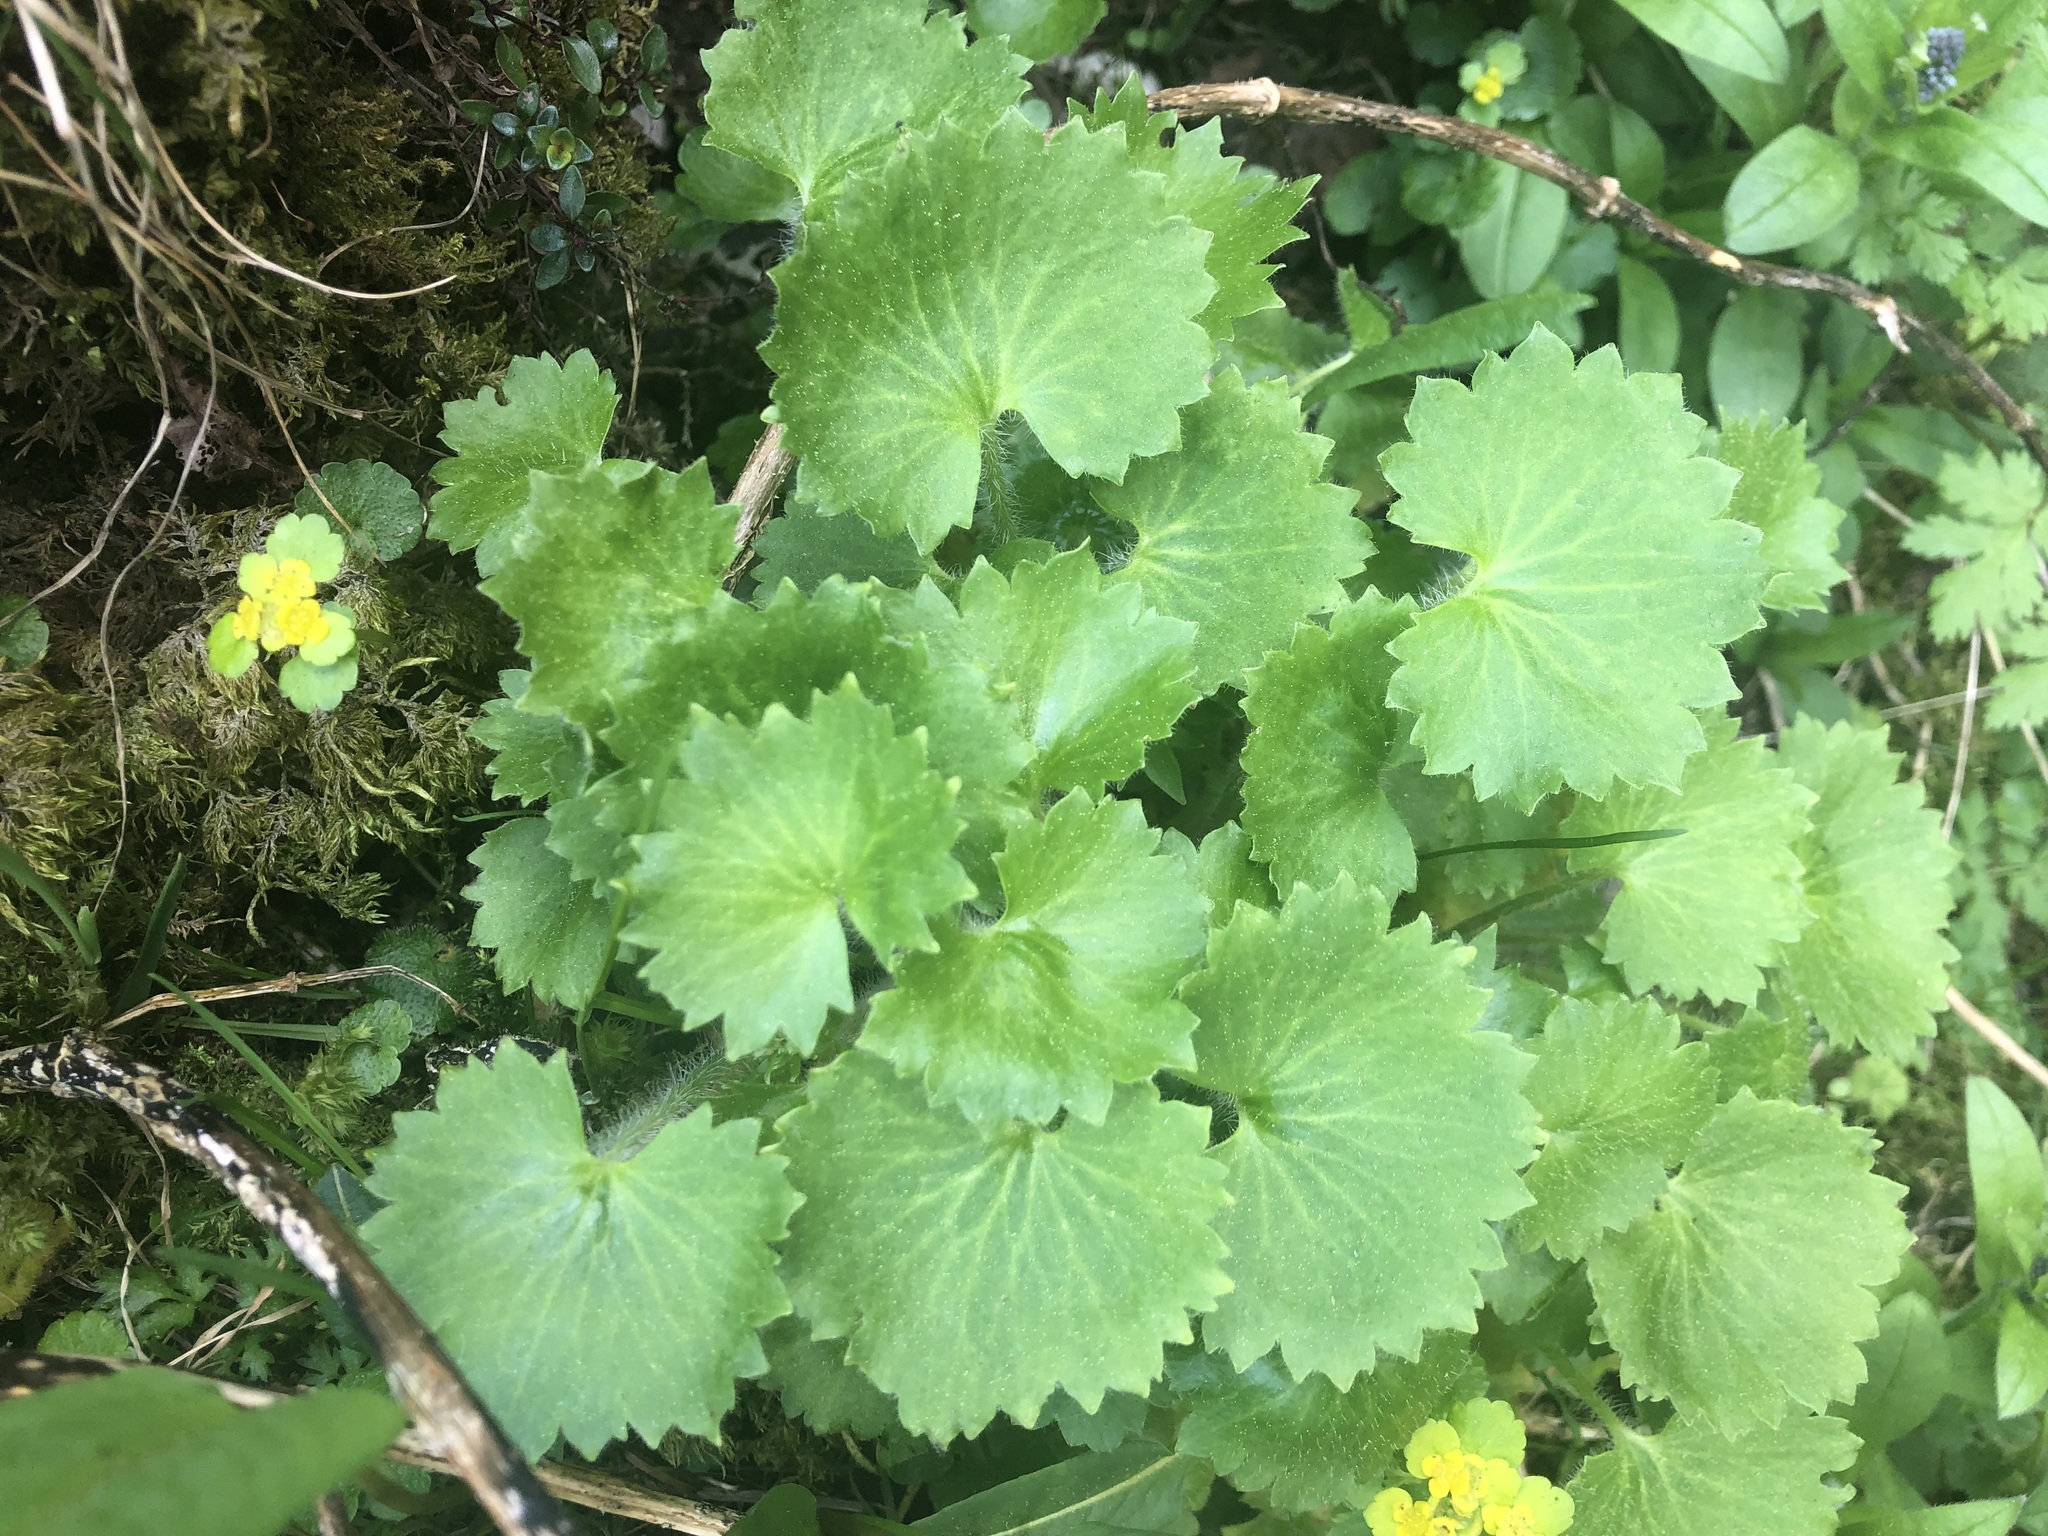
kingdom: Plantae
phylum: Tracheophyta
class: Magnoliopsida
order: Saxifragales
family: Saxifragaceae
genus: Saxifraga
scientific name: Saxifraga rotundifolia
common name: Round-leaved saxifrage
